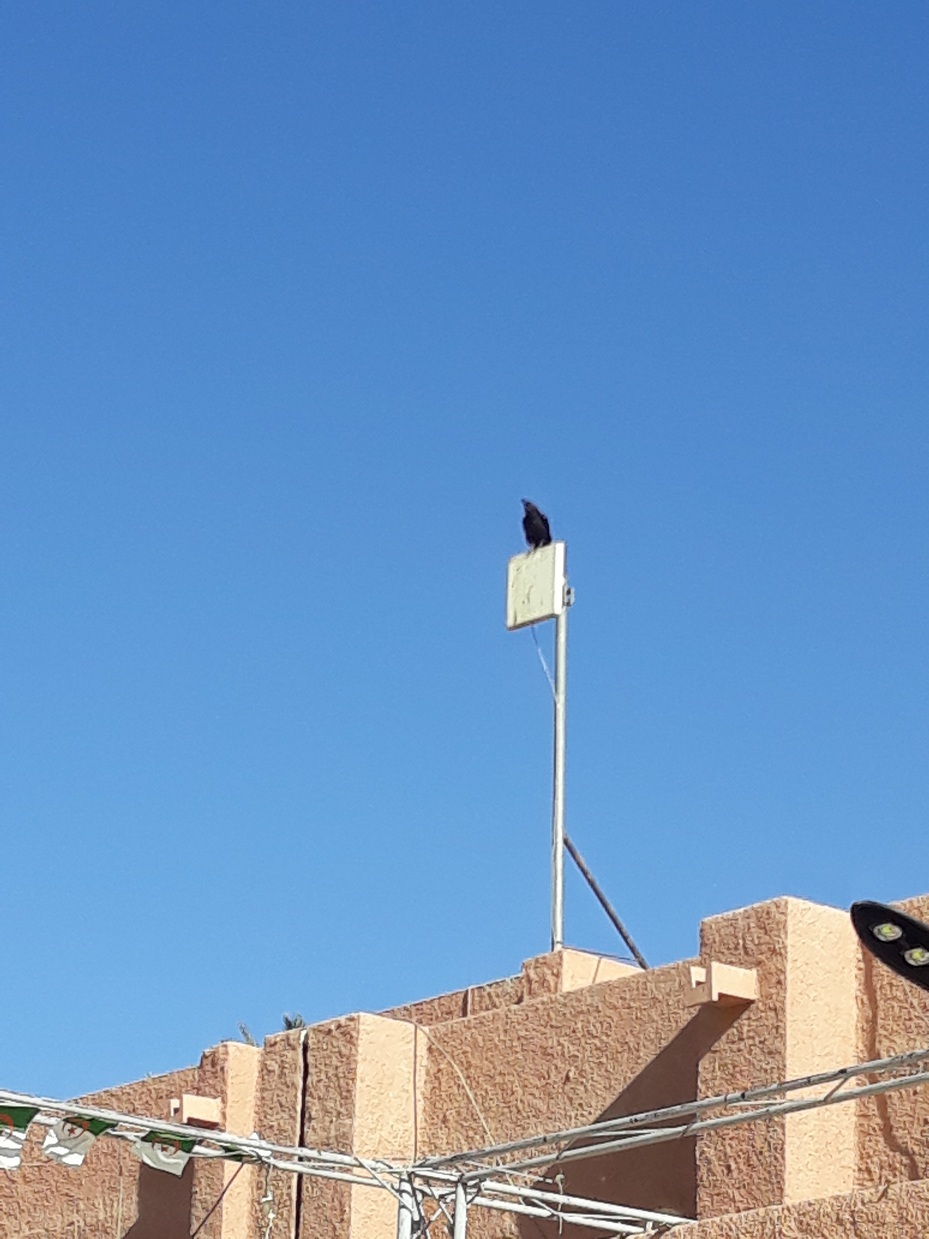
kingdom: Animalia
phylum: Chordata
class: Aves
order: Passeriformes
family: Corvidae
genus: Corvus
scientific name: Corvus ruficollis
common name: Brown-necked raven
